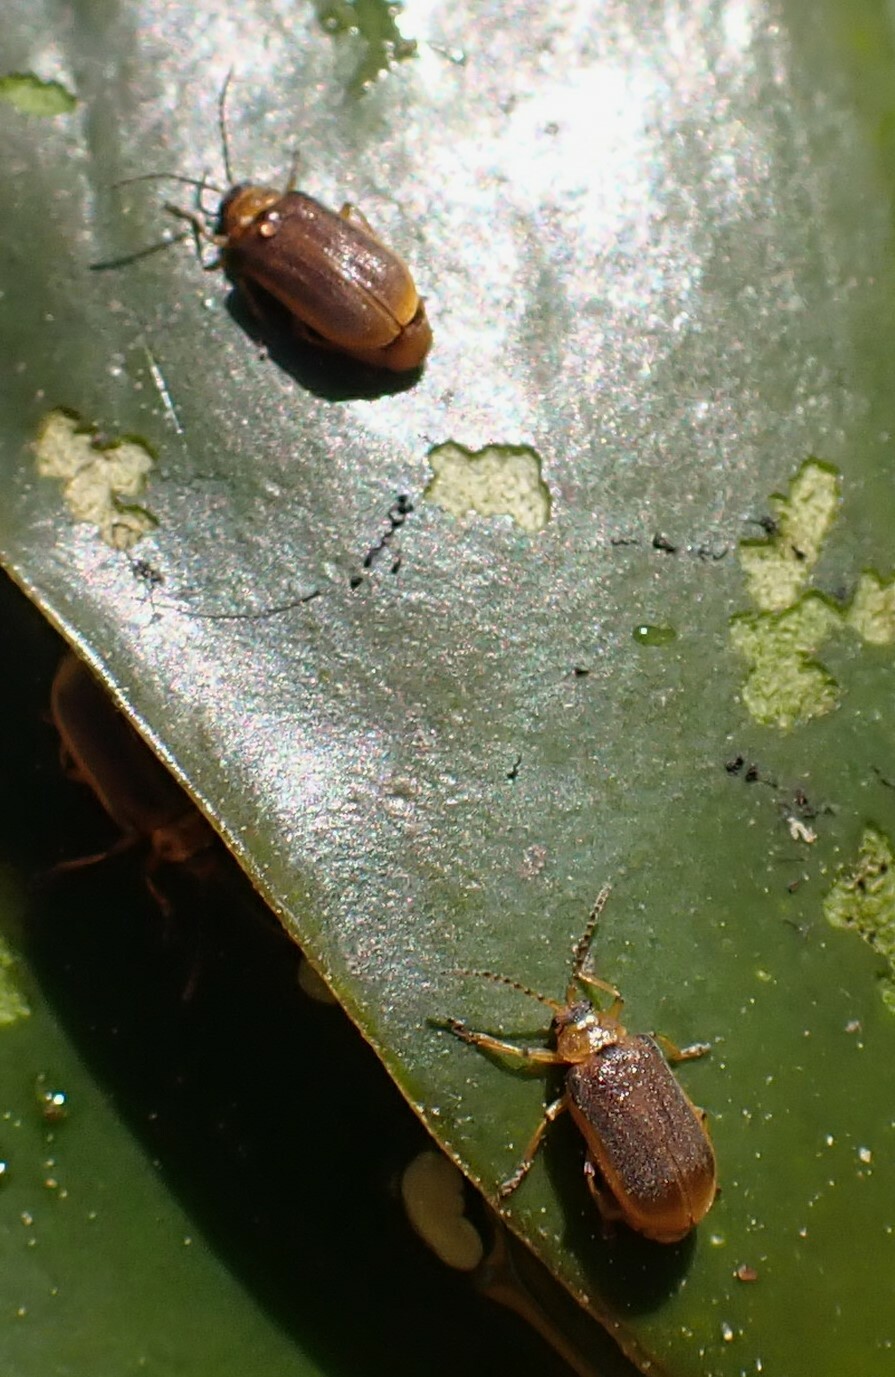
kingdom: Animalia
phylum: Arthropoda
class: Insecta
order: Coleoptera
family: Chrysomelidae
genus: Galerucella
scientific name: Galerucella nymphaeae
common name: Leaf beetle
